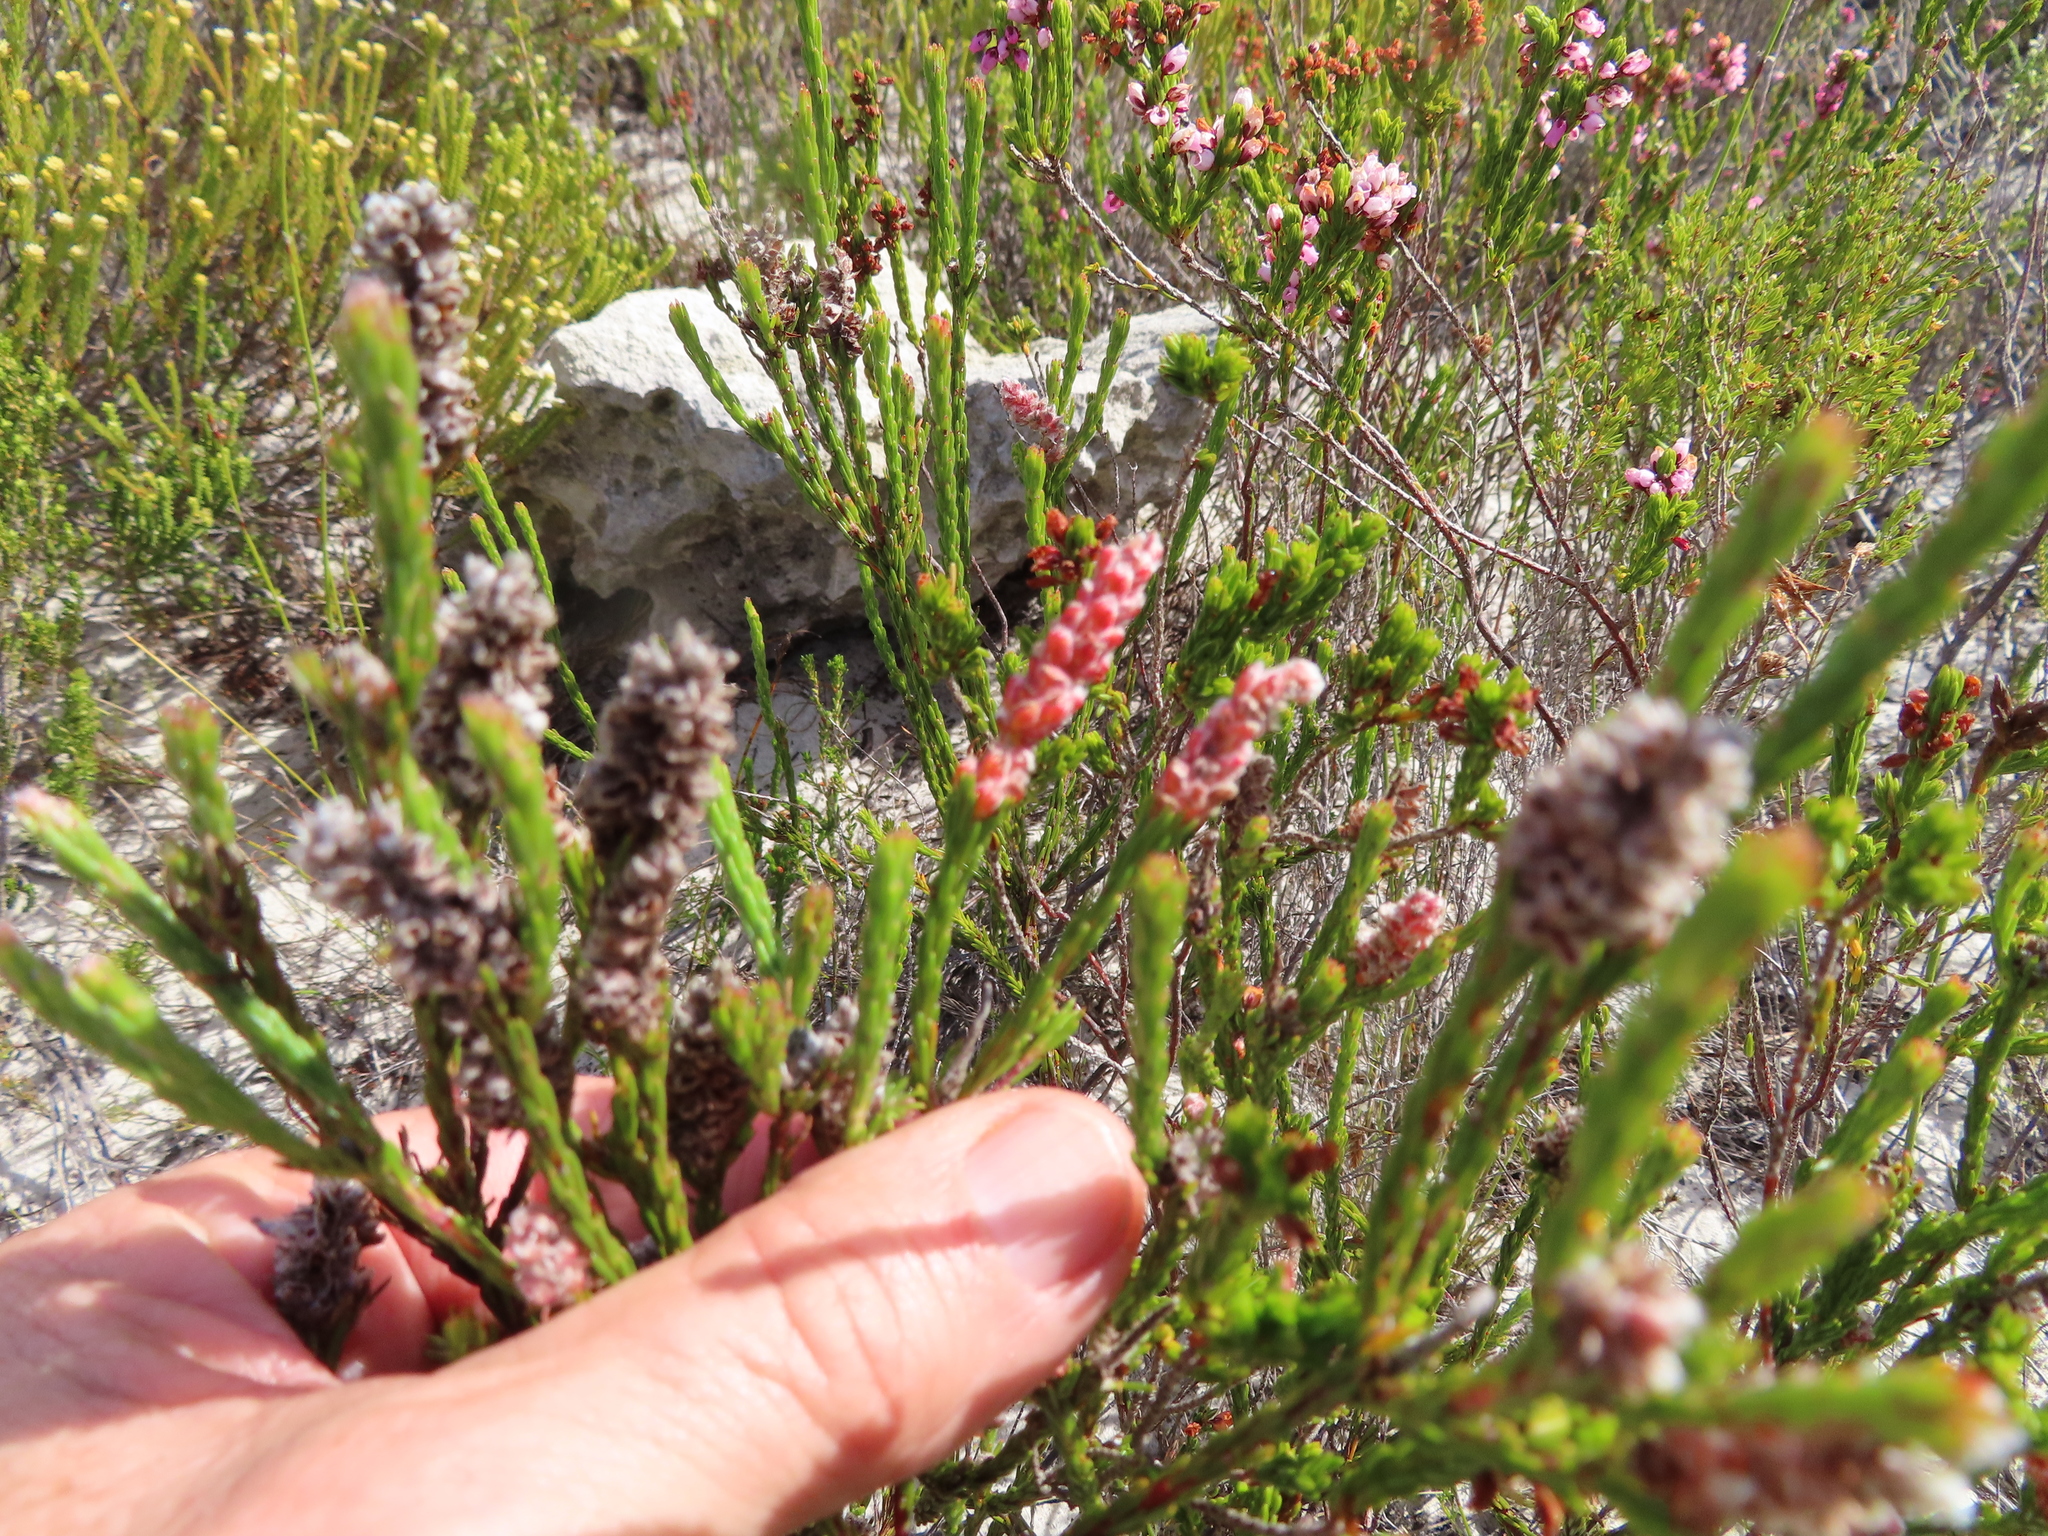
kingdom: Plantae
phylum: Tracheophyta
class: Magnoliopsida
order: Proteales
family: Proteaceae
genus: Spatalla
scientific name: Spatalla squamata
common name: Silky spoon
